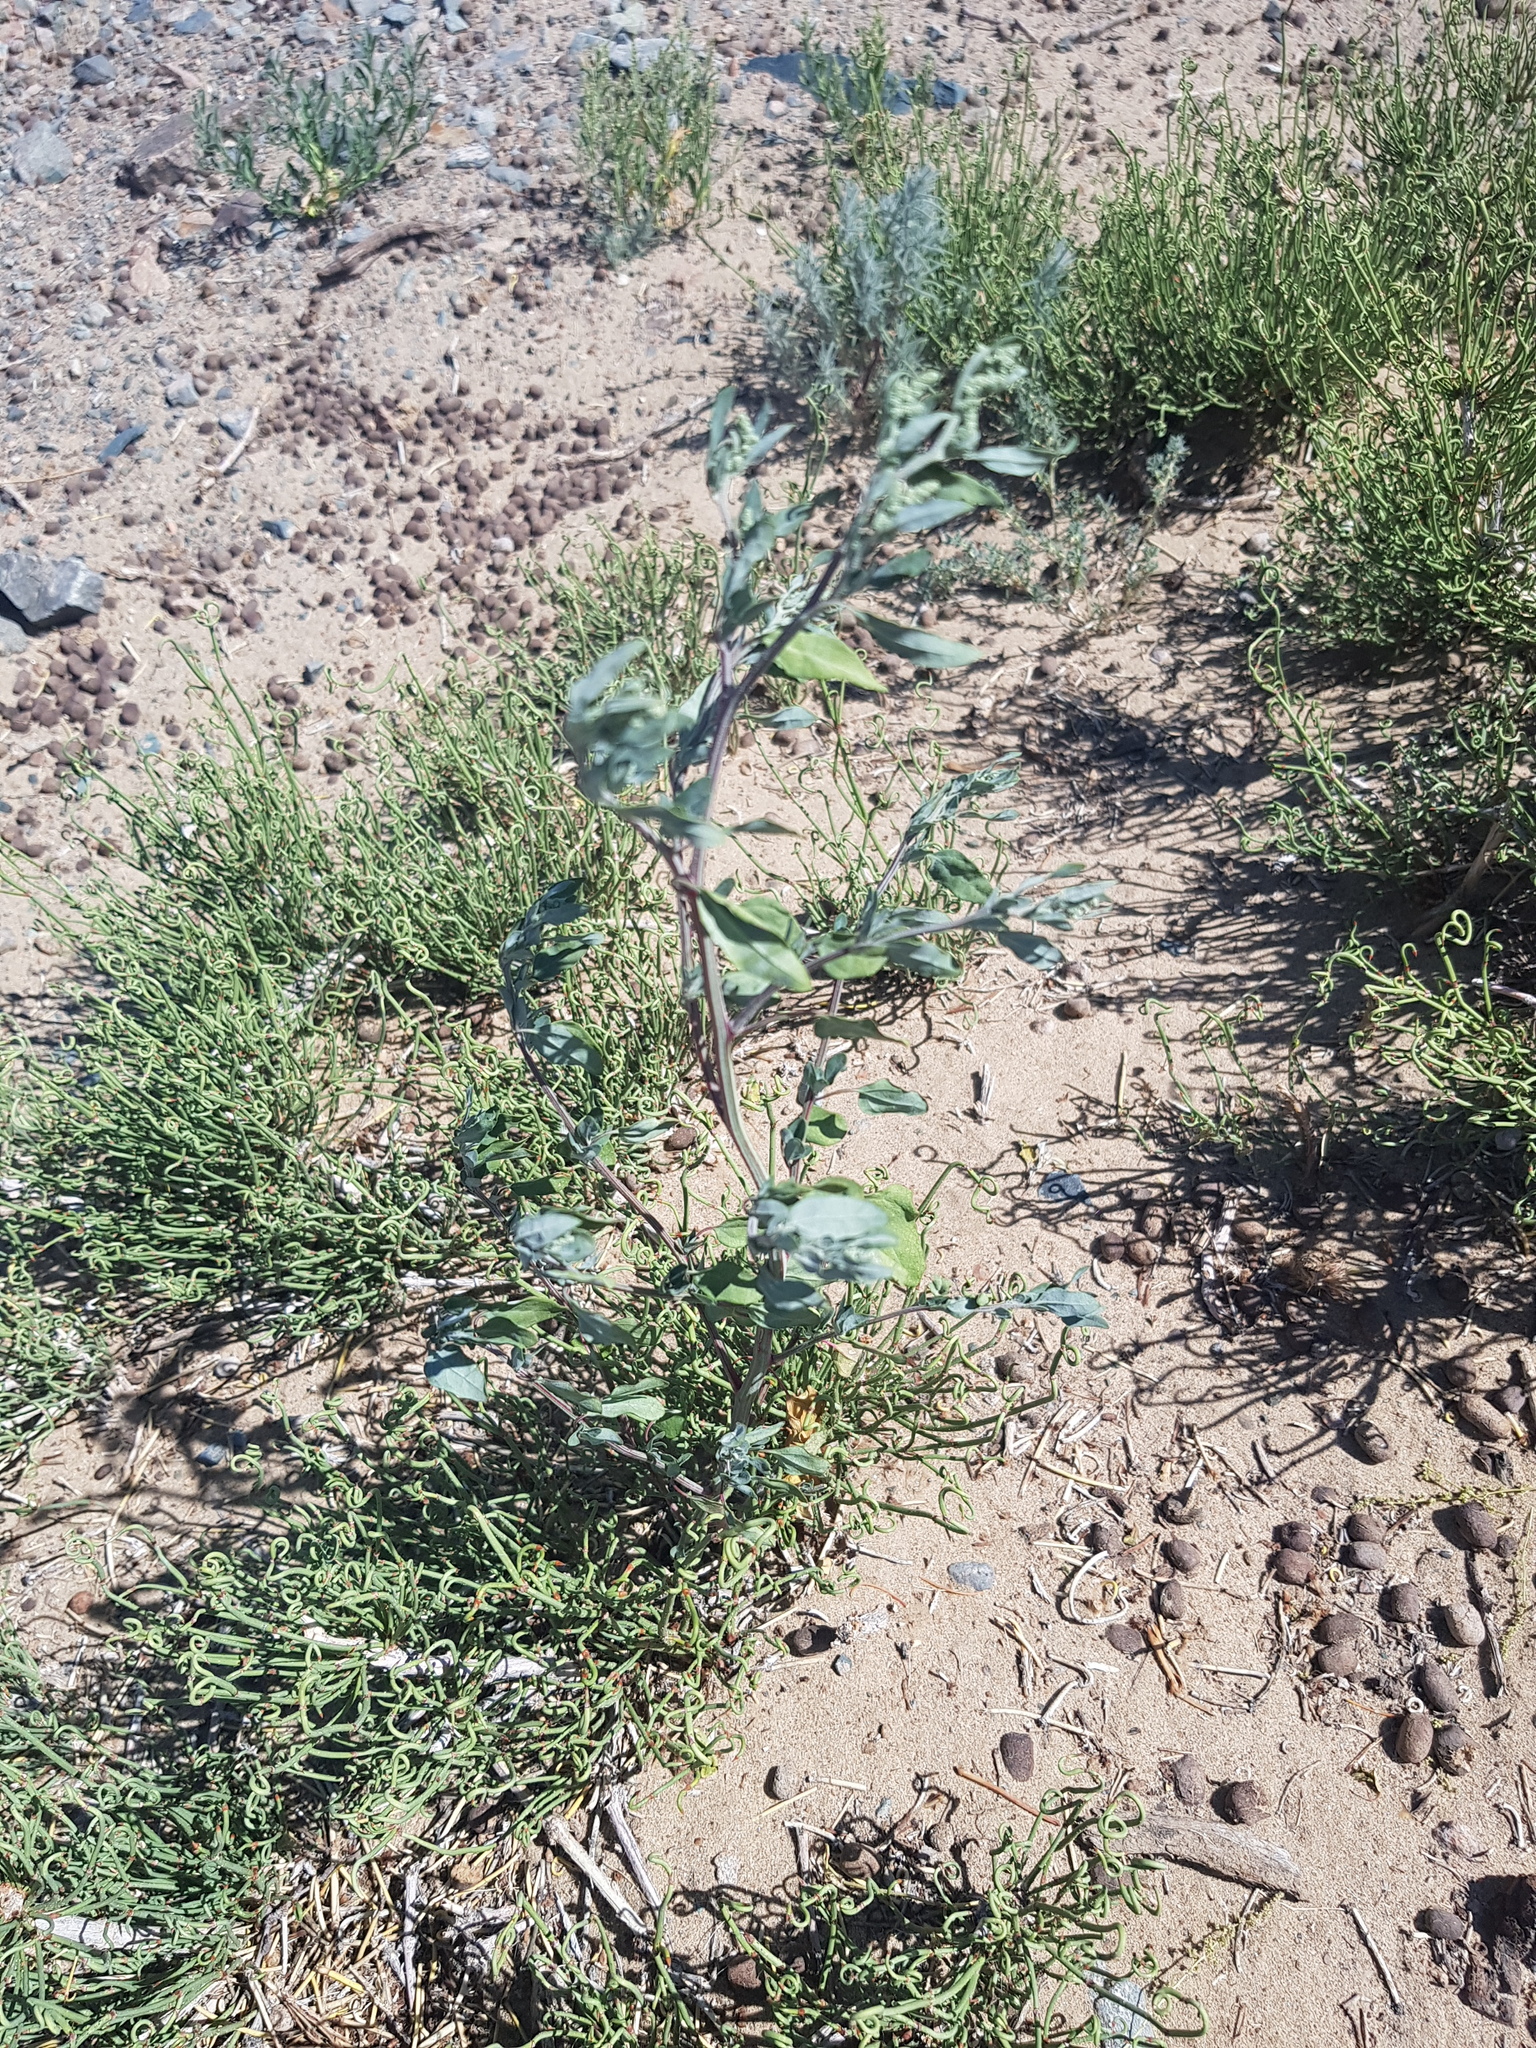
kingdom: Plantae
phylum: Tracheophyta
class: Magnoliopsida
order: Caryophyllales
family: Polygonaceae
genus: Atraphaxis
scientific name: Atraphaxis frutescens
